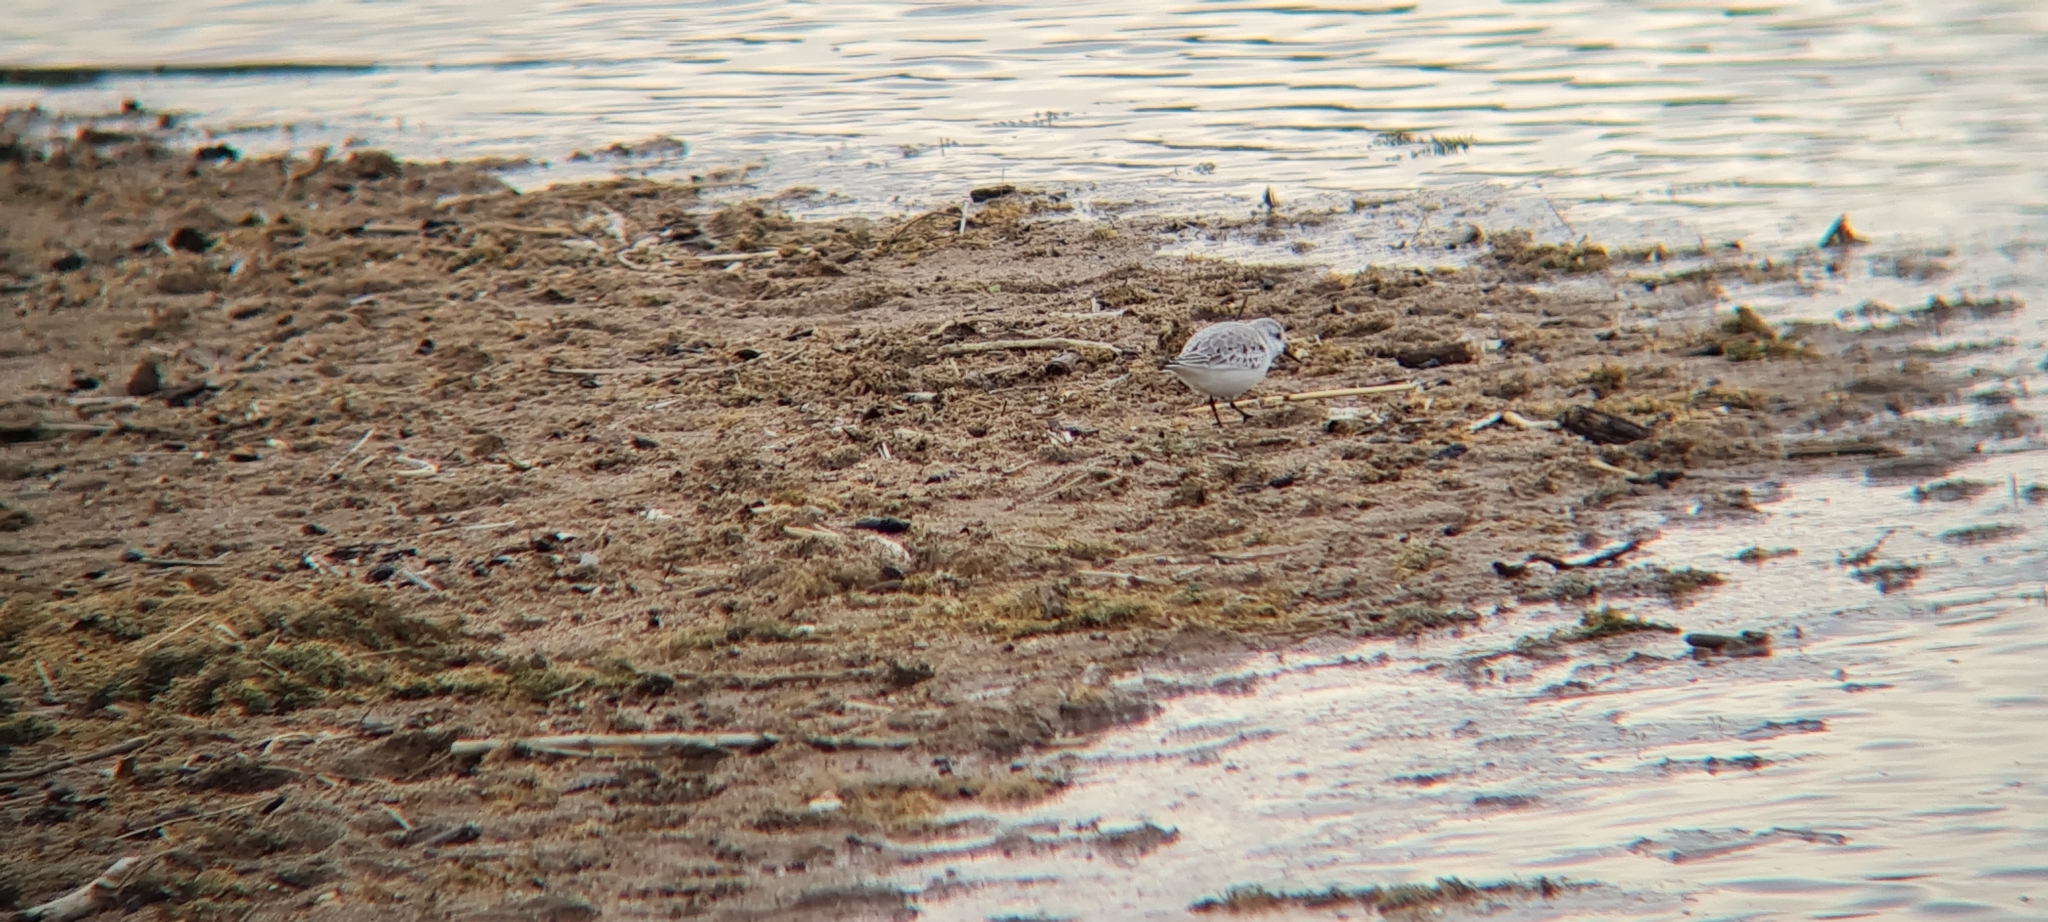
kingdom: Animalia
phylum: Chordata
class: Aves
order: Charadriiformes
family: Scolopacidae
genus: Calidris
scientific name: Calidris alba
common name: Sanderling
